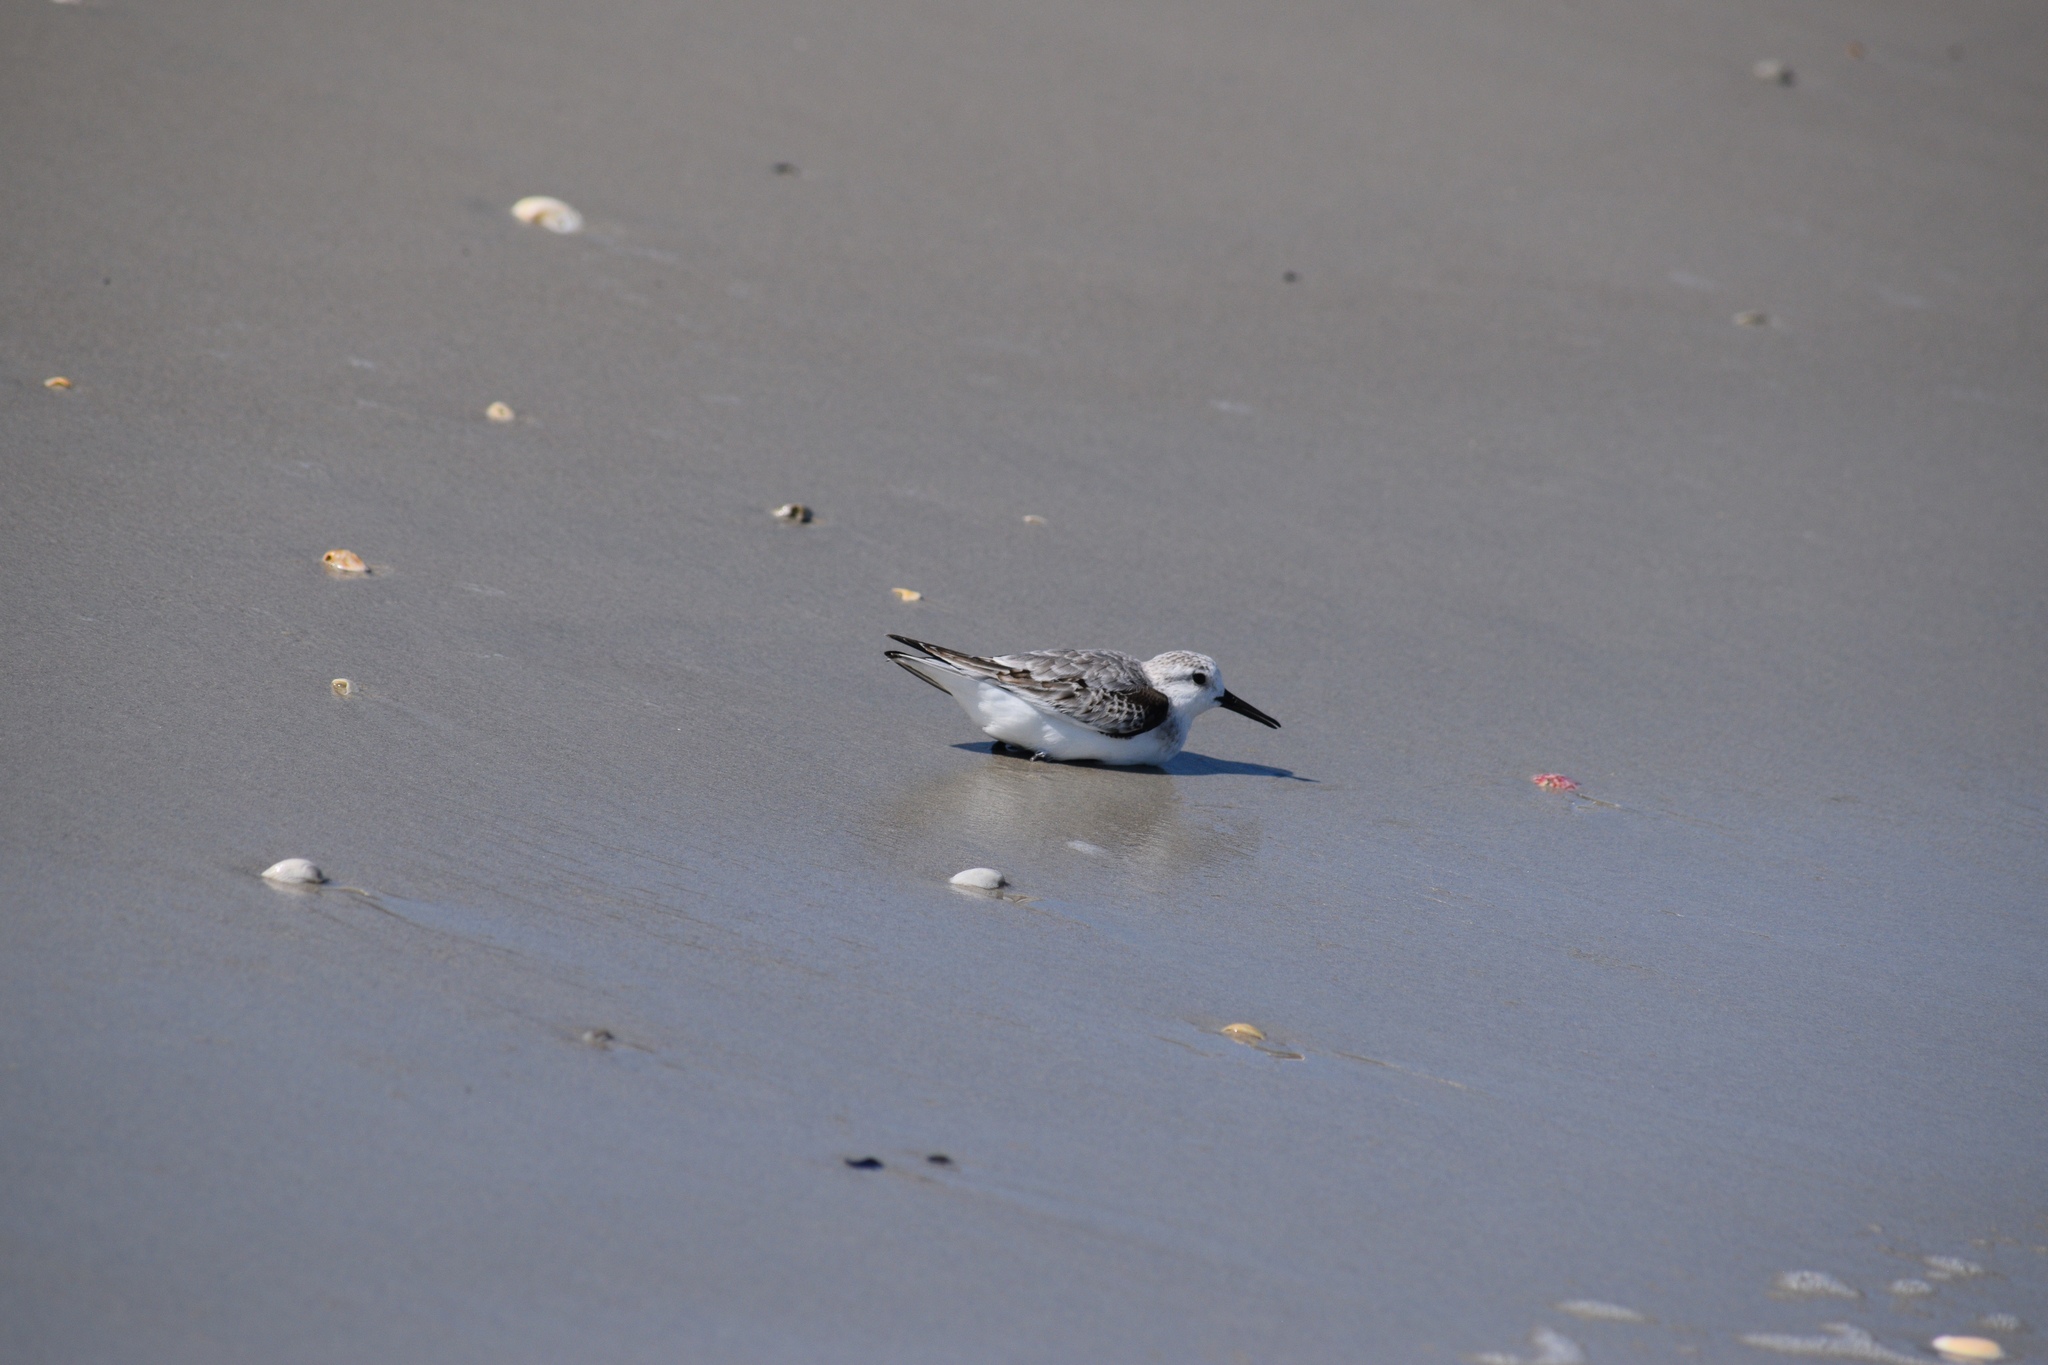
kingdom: Animalia
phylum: Chordata
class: Aves
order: Charadriiformes
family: Scolopacidae
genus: Calidris
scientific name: Calidris alba
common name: Sanderling
